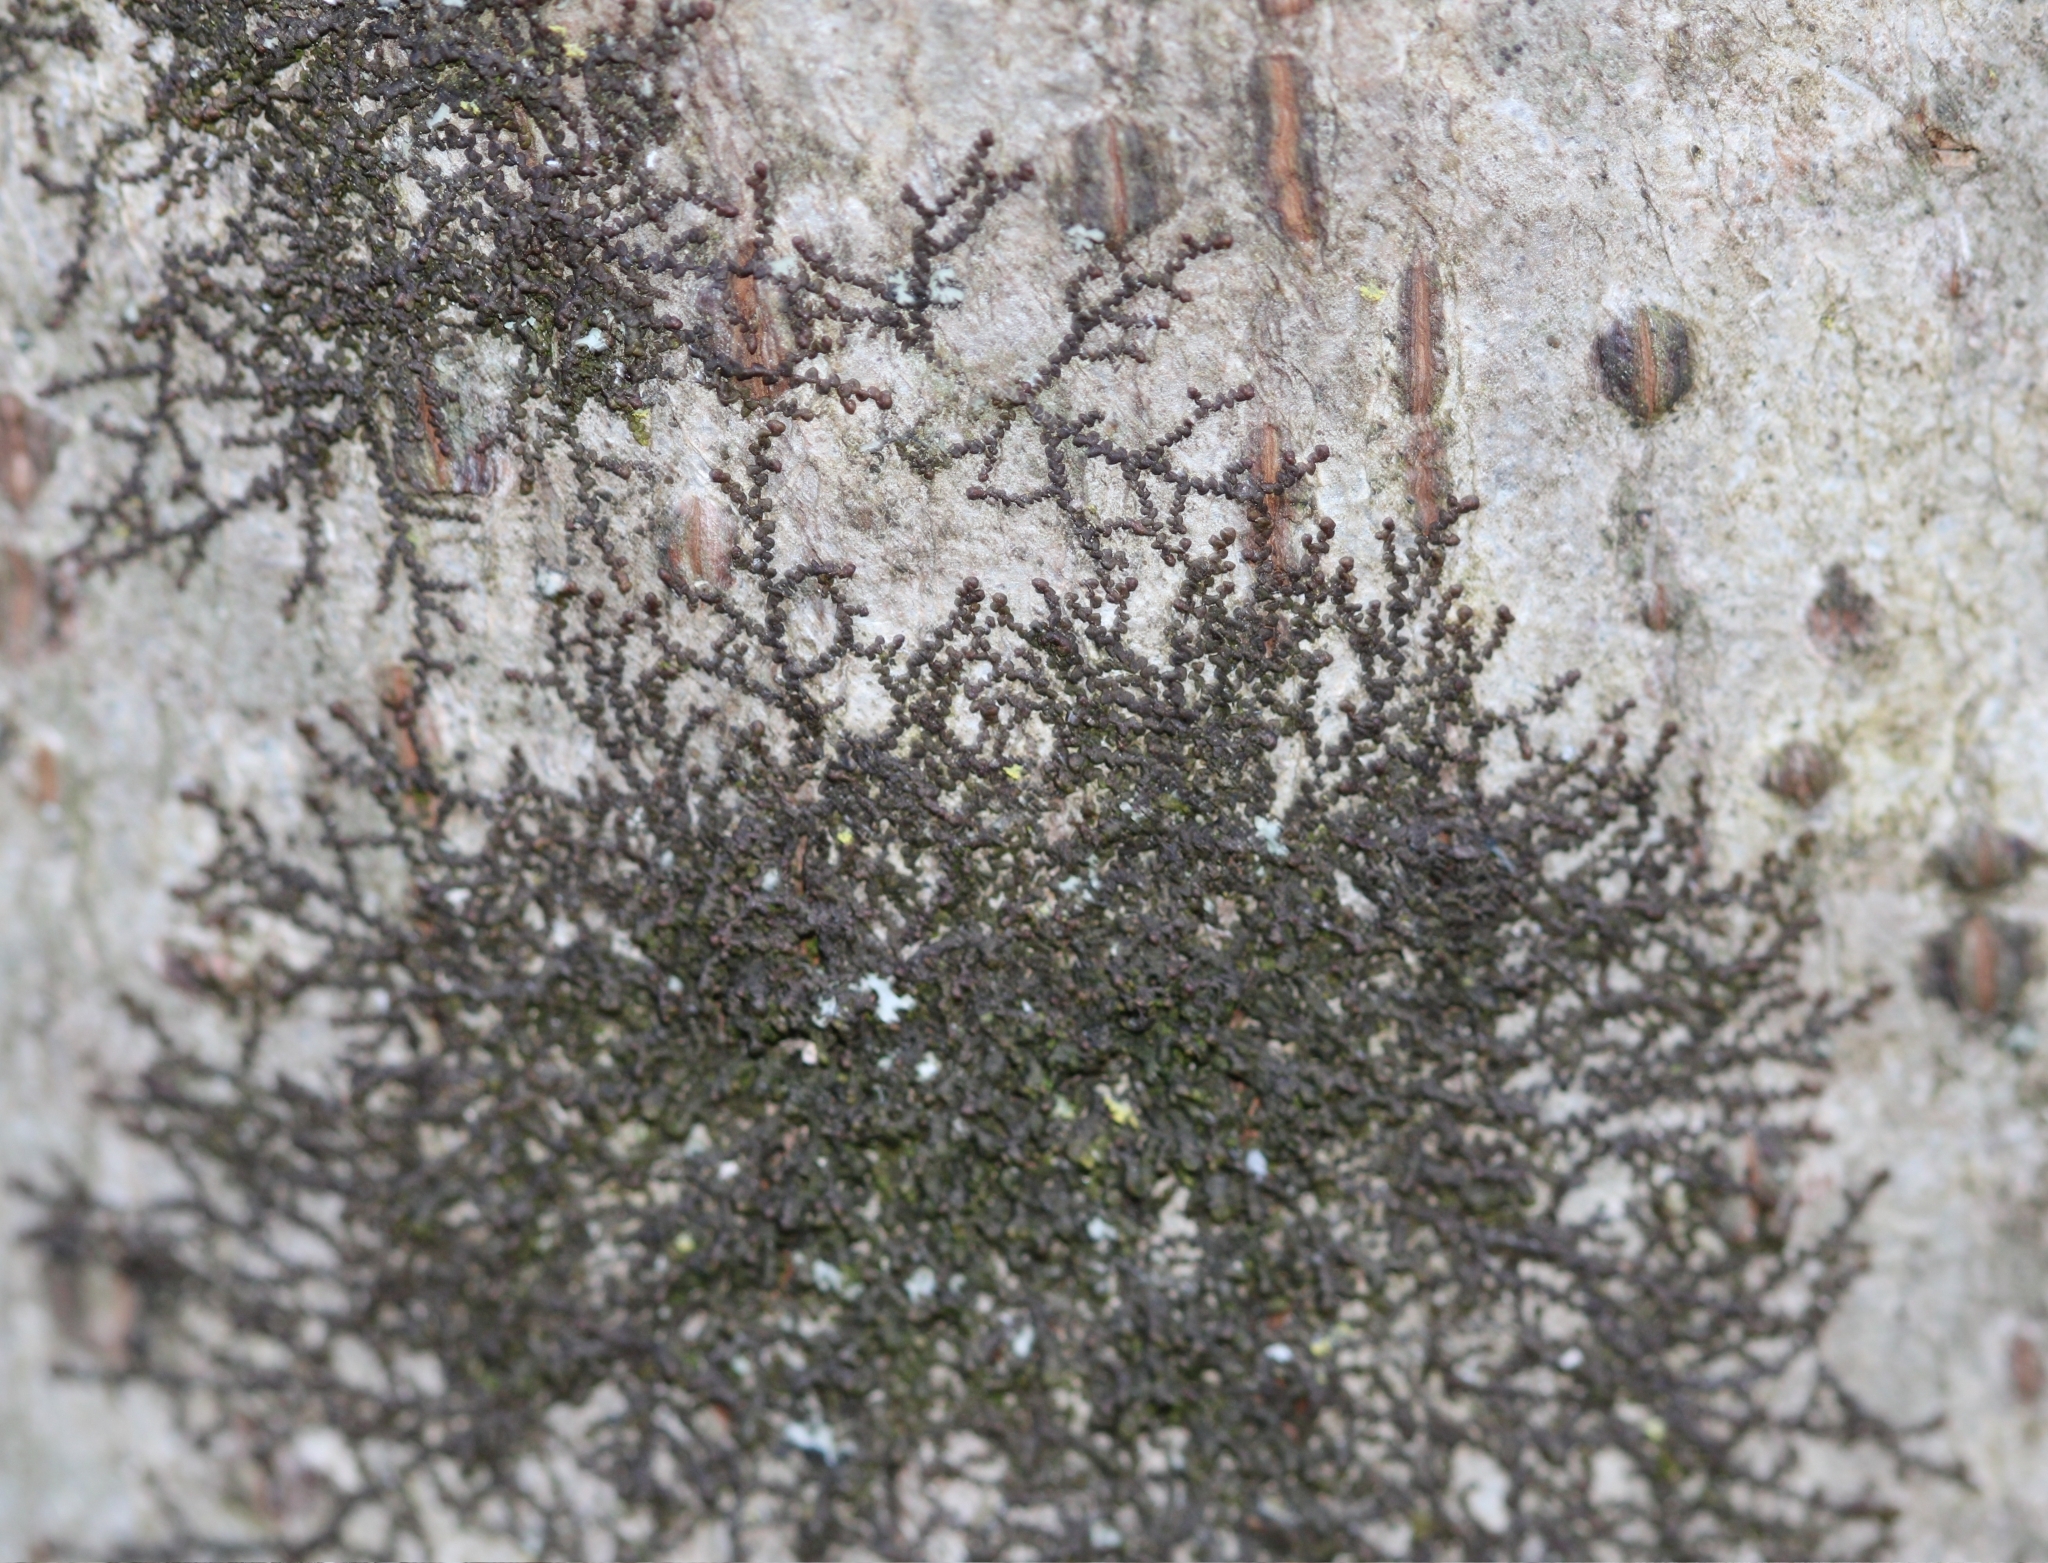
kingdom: Plantae
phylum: Marchantiophyta
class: Jungermanniopsida
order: Porellales
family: Frullaniaceae
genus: Frullania
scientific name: Frullania eboracensis
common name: New york scalewort
